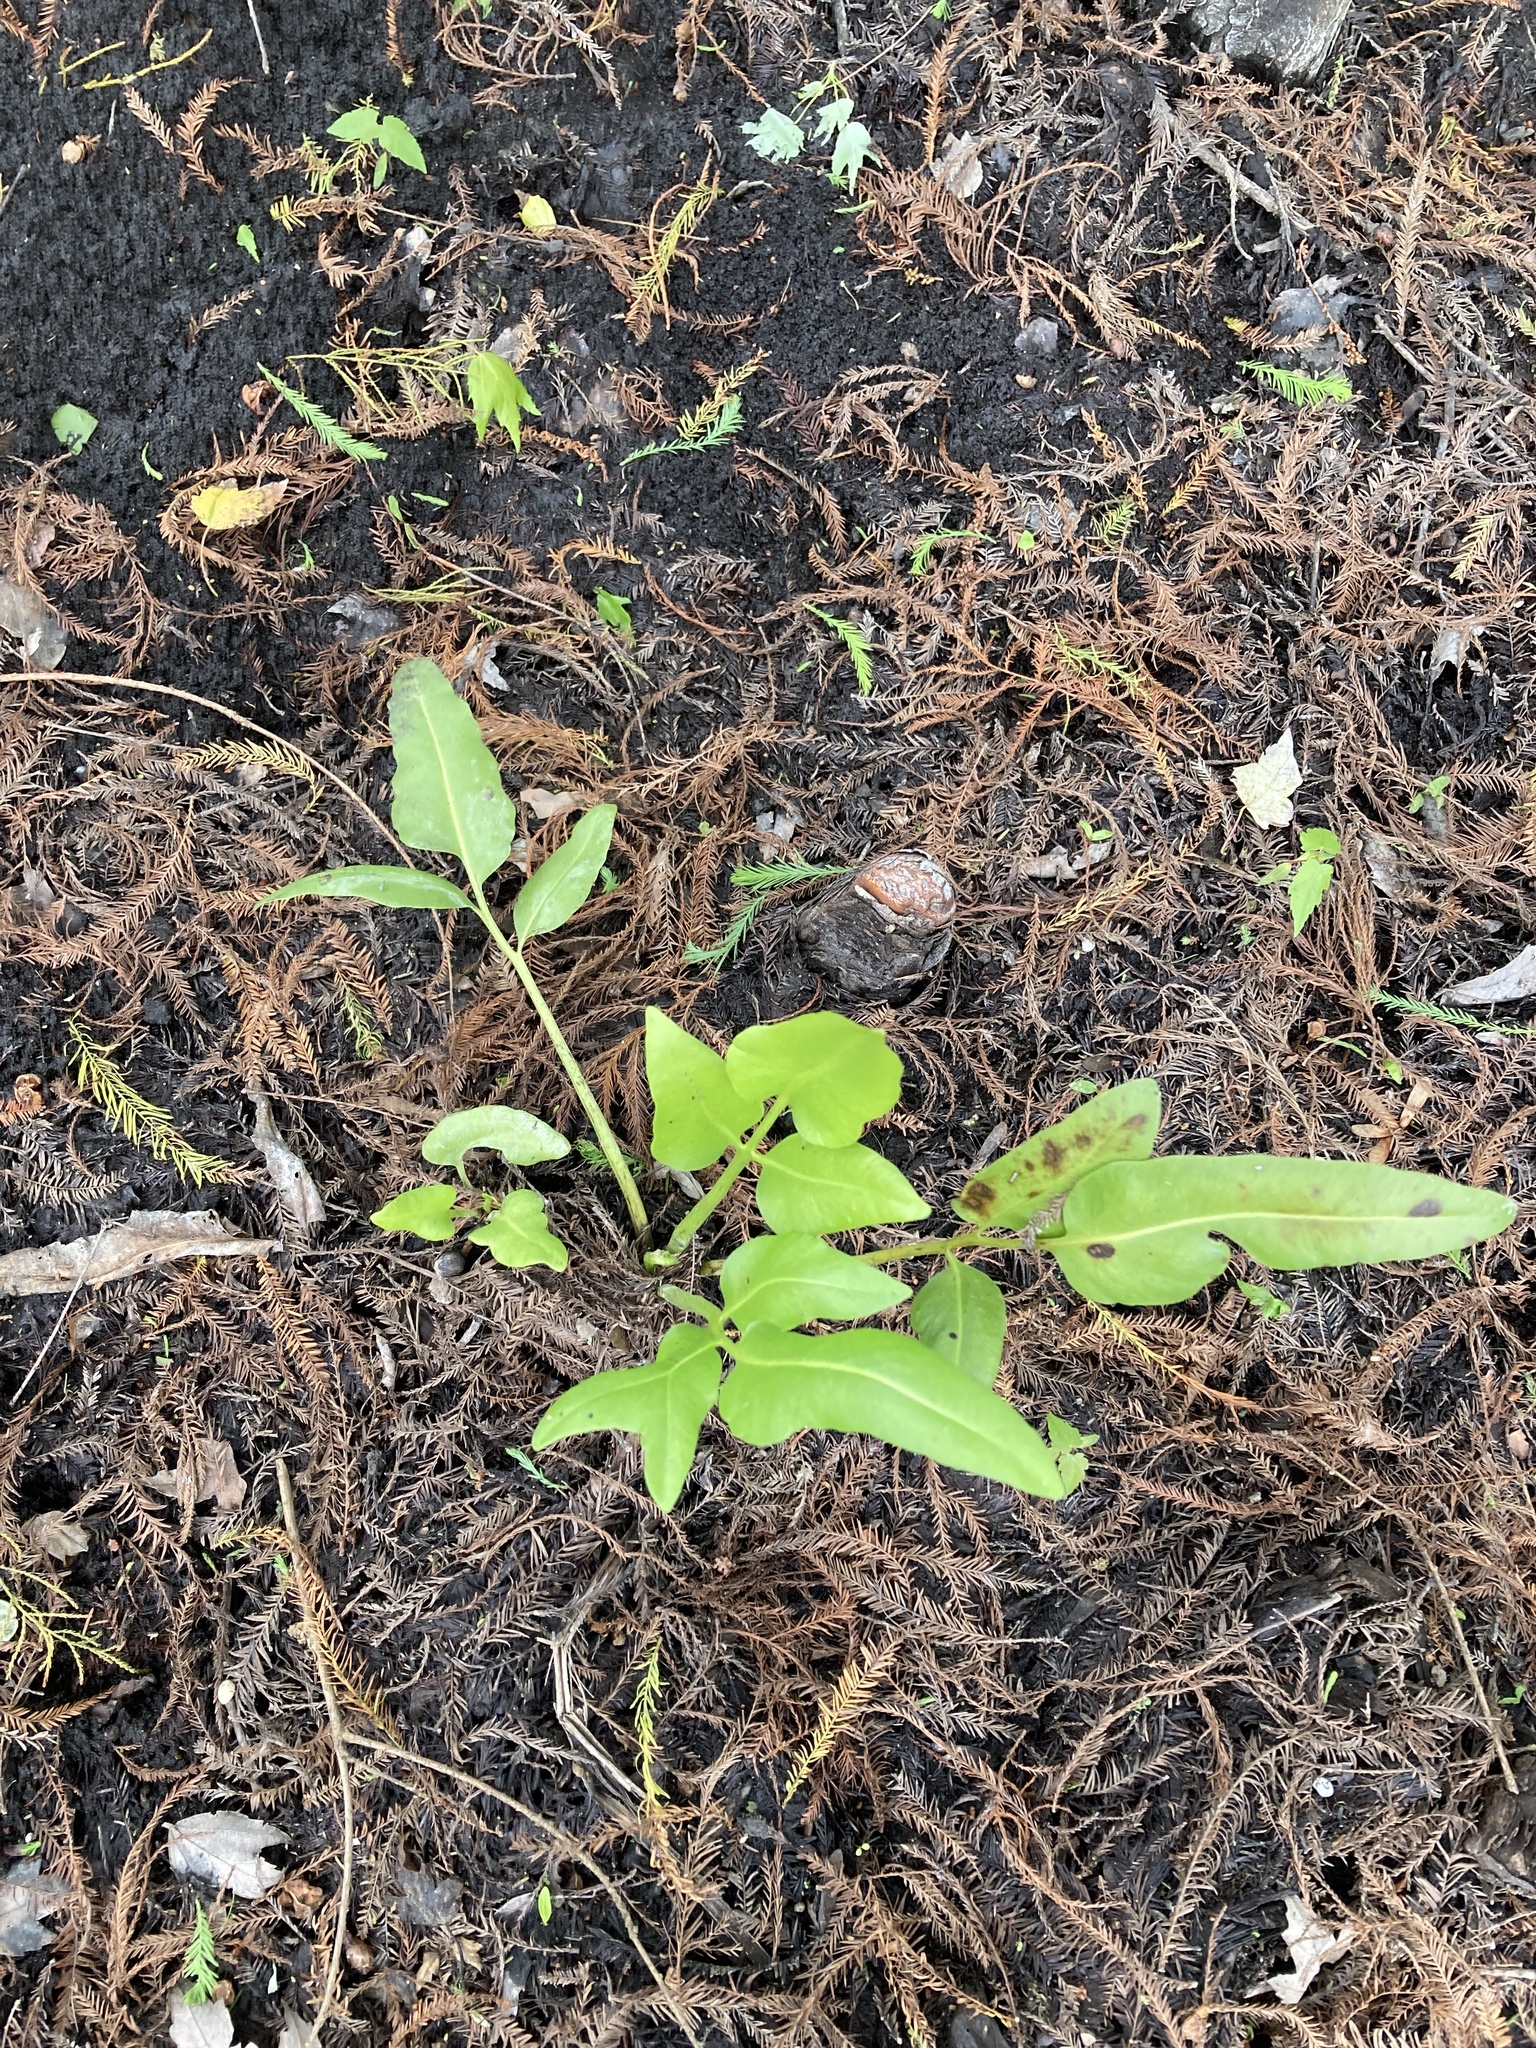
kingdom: Plantae
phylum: Tracheophyta
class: Polypodiopsida
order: Polypodiales
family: Pteridaceae
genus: Acrostichum
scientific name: Acrostichum danaeifolium
